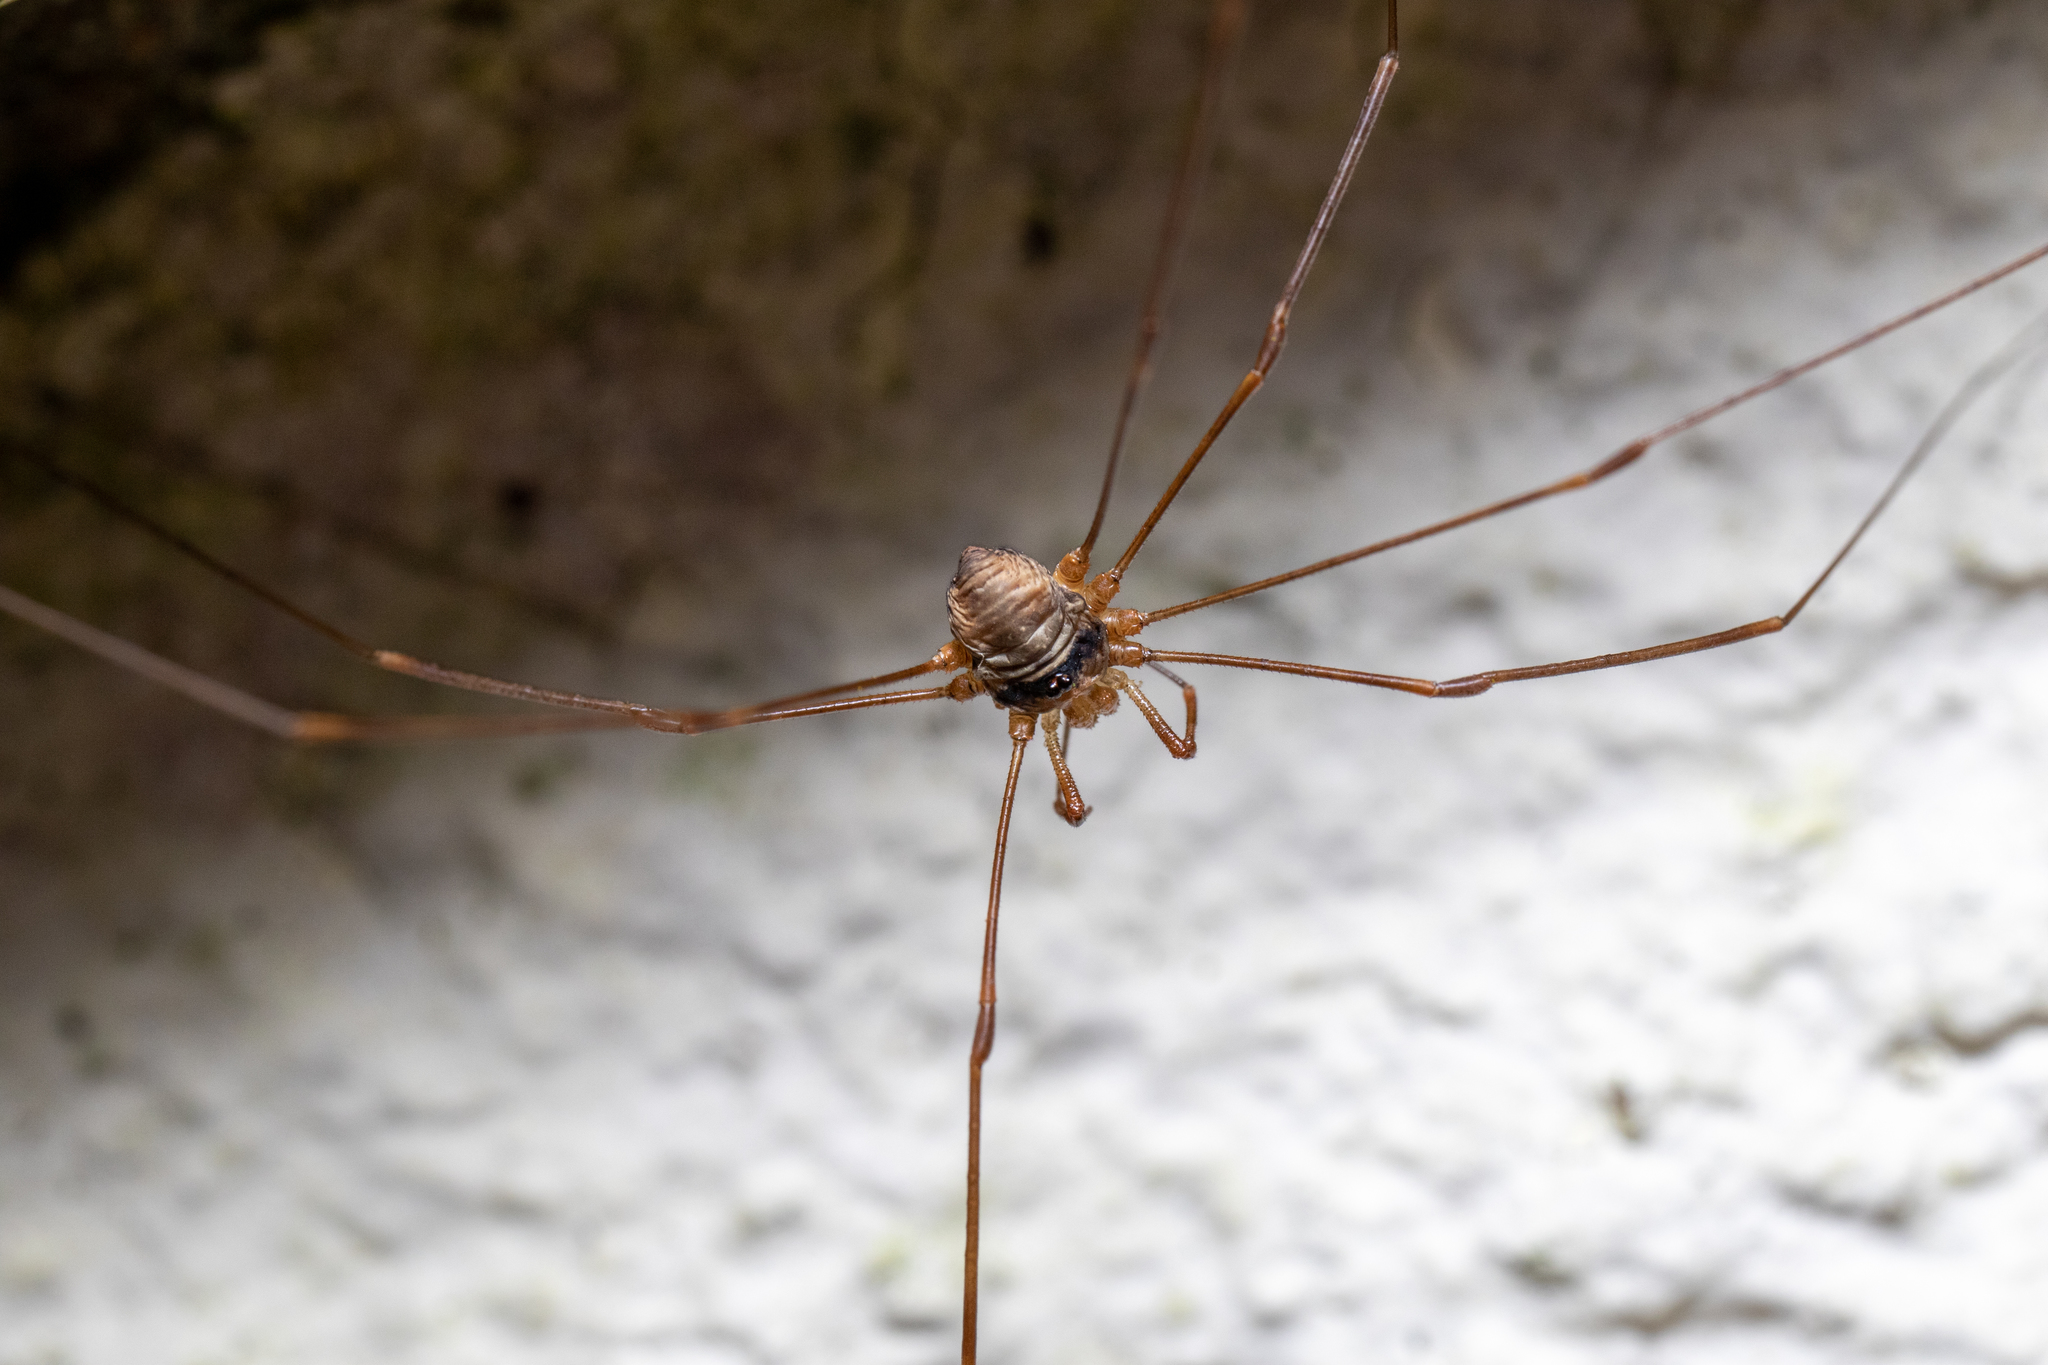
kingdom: Animalia
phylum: Arthropoda
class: Arachnida
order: Opiliones
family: Phalangiidae
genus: Dicranopalpus
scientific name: Dicranopalpus ramosus
